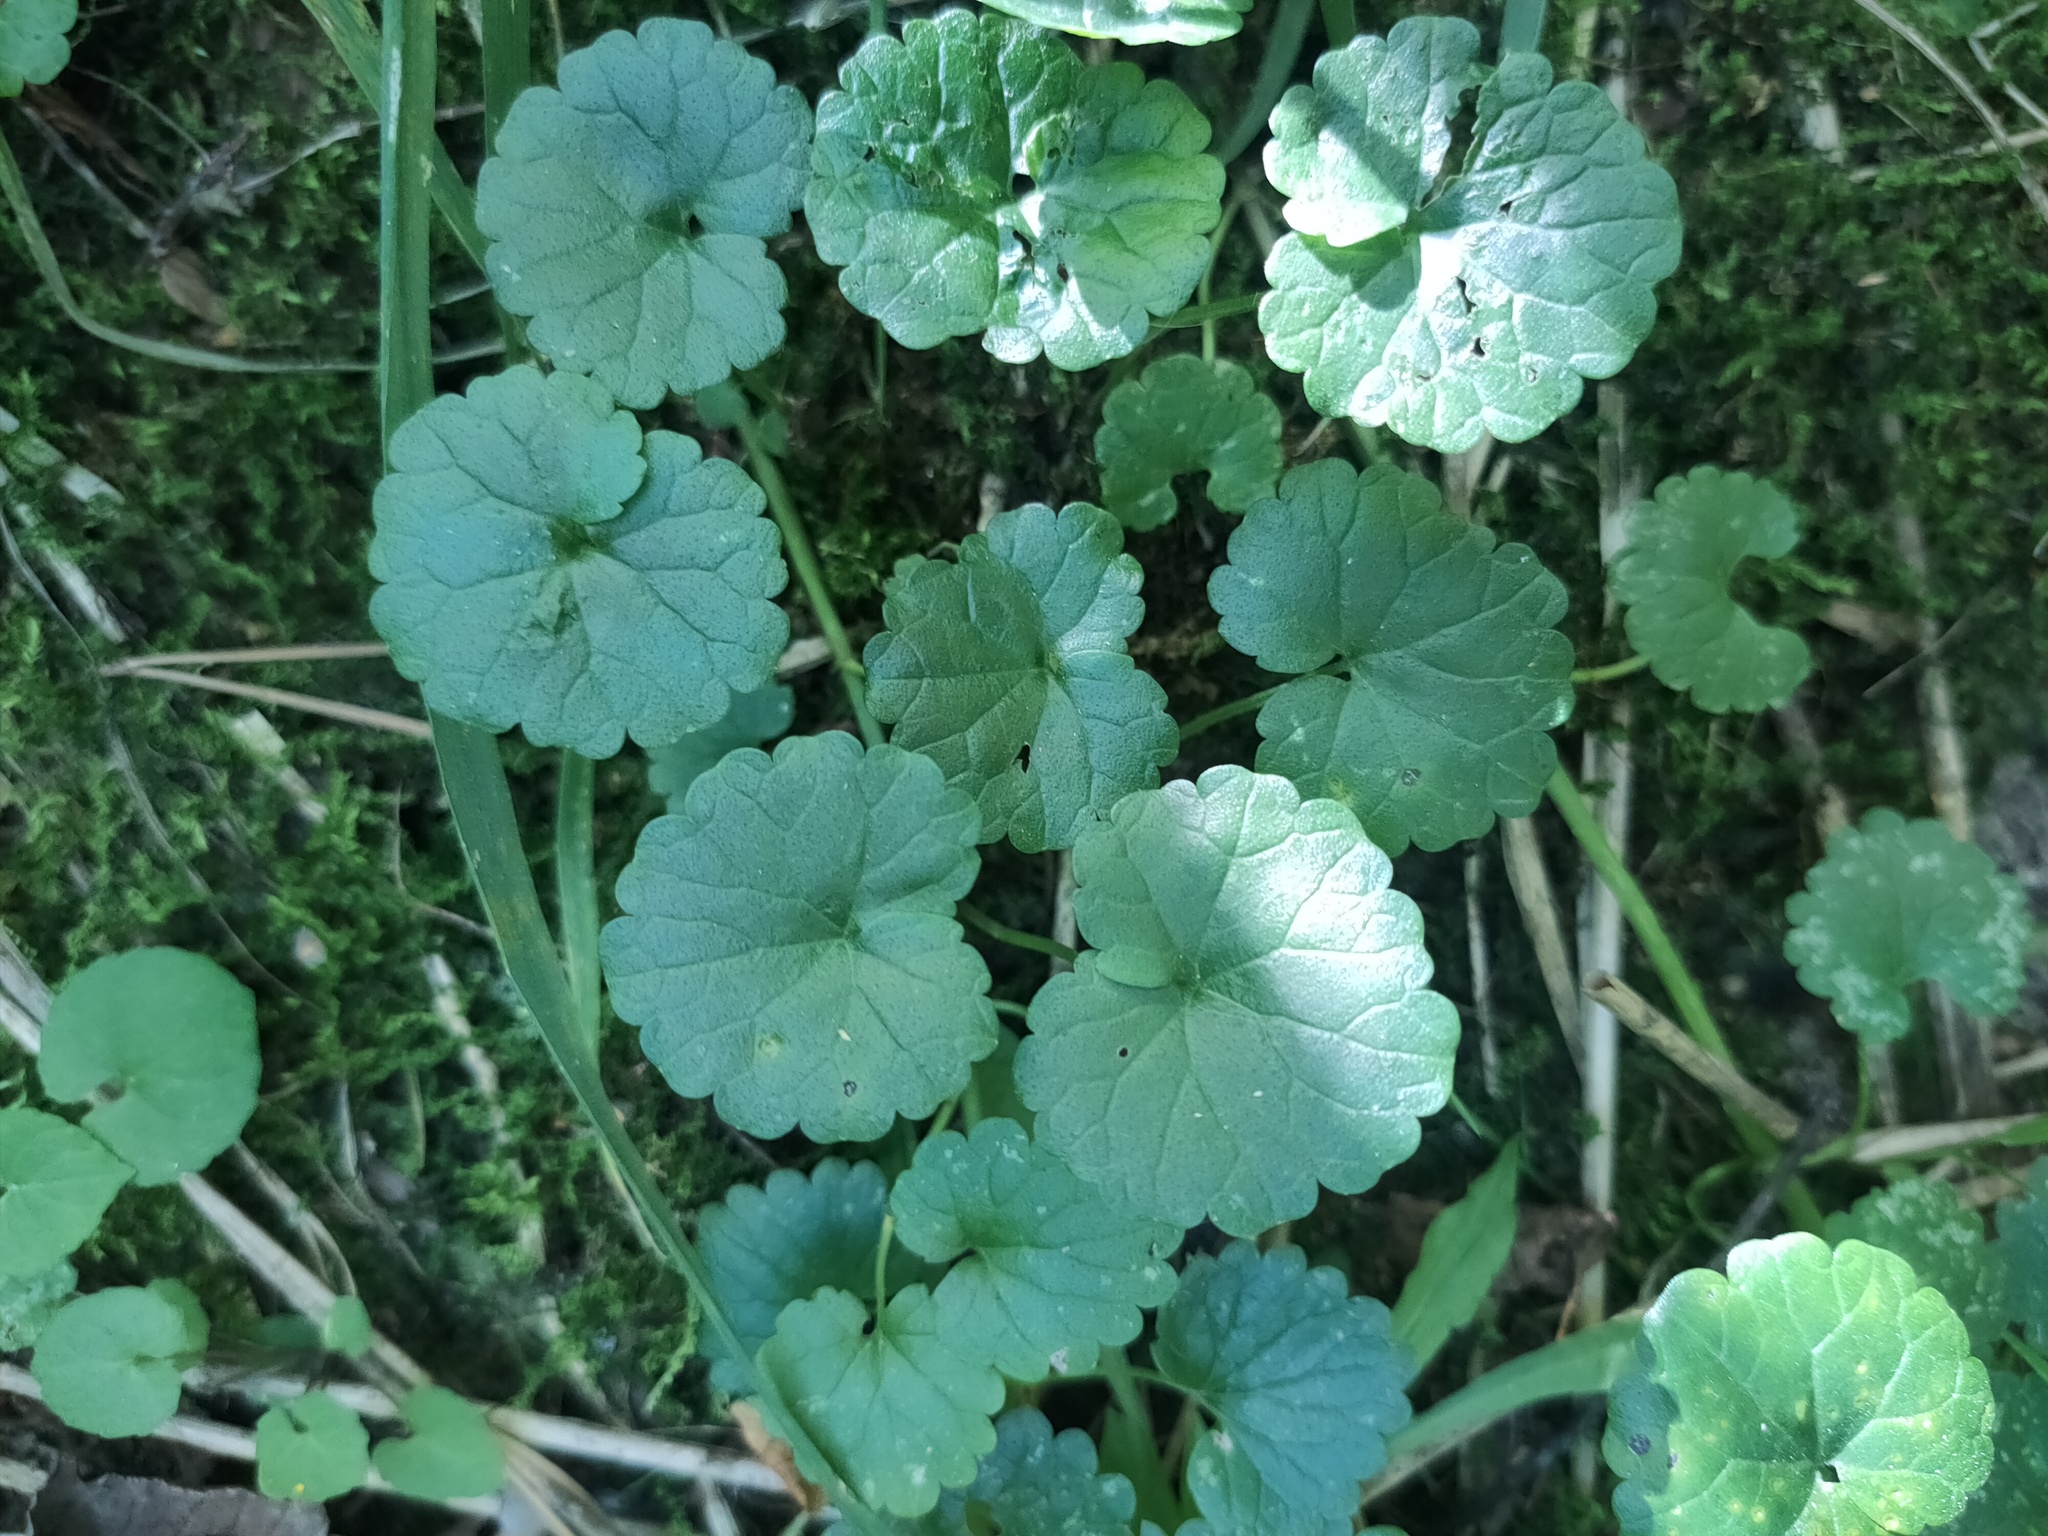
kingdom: Plantae
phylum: Tracheophyta
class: Magnoliopsida
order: Lamiales
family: Lamiaceae
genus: Glechoma
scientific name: Glechoma hederacea
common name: Ground ivy
